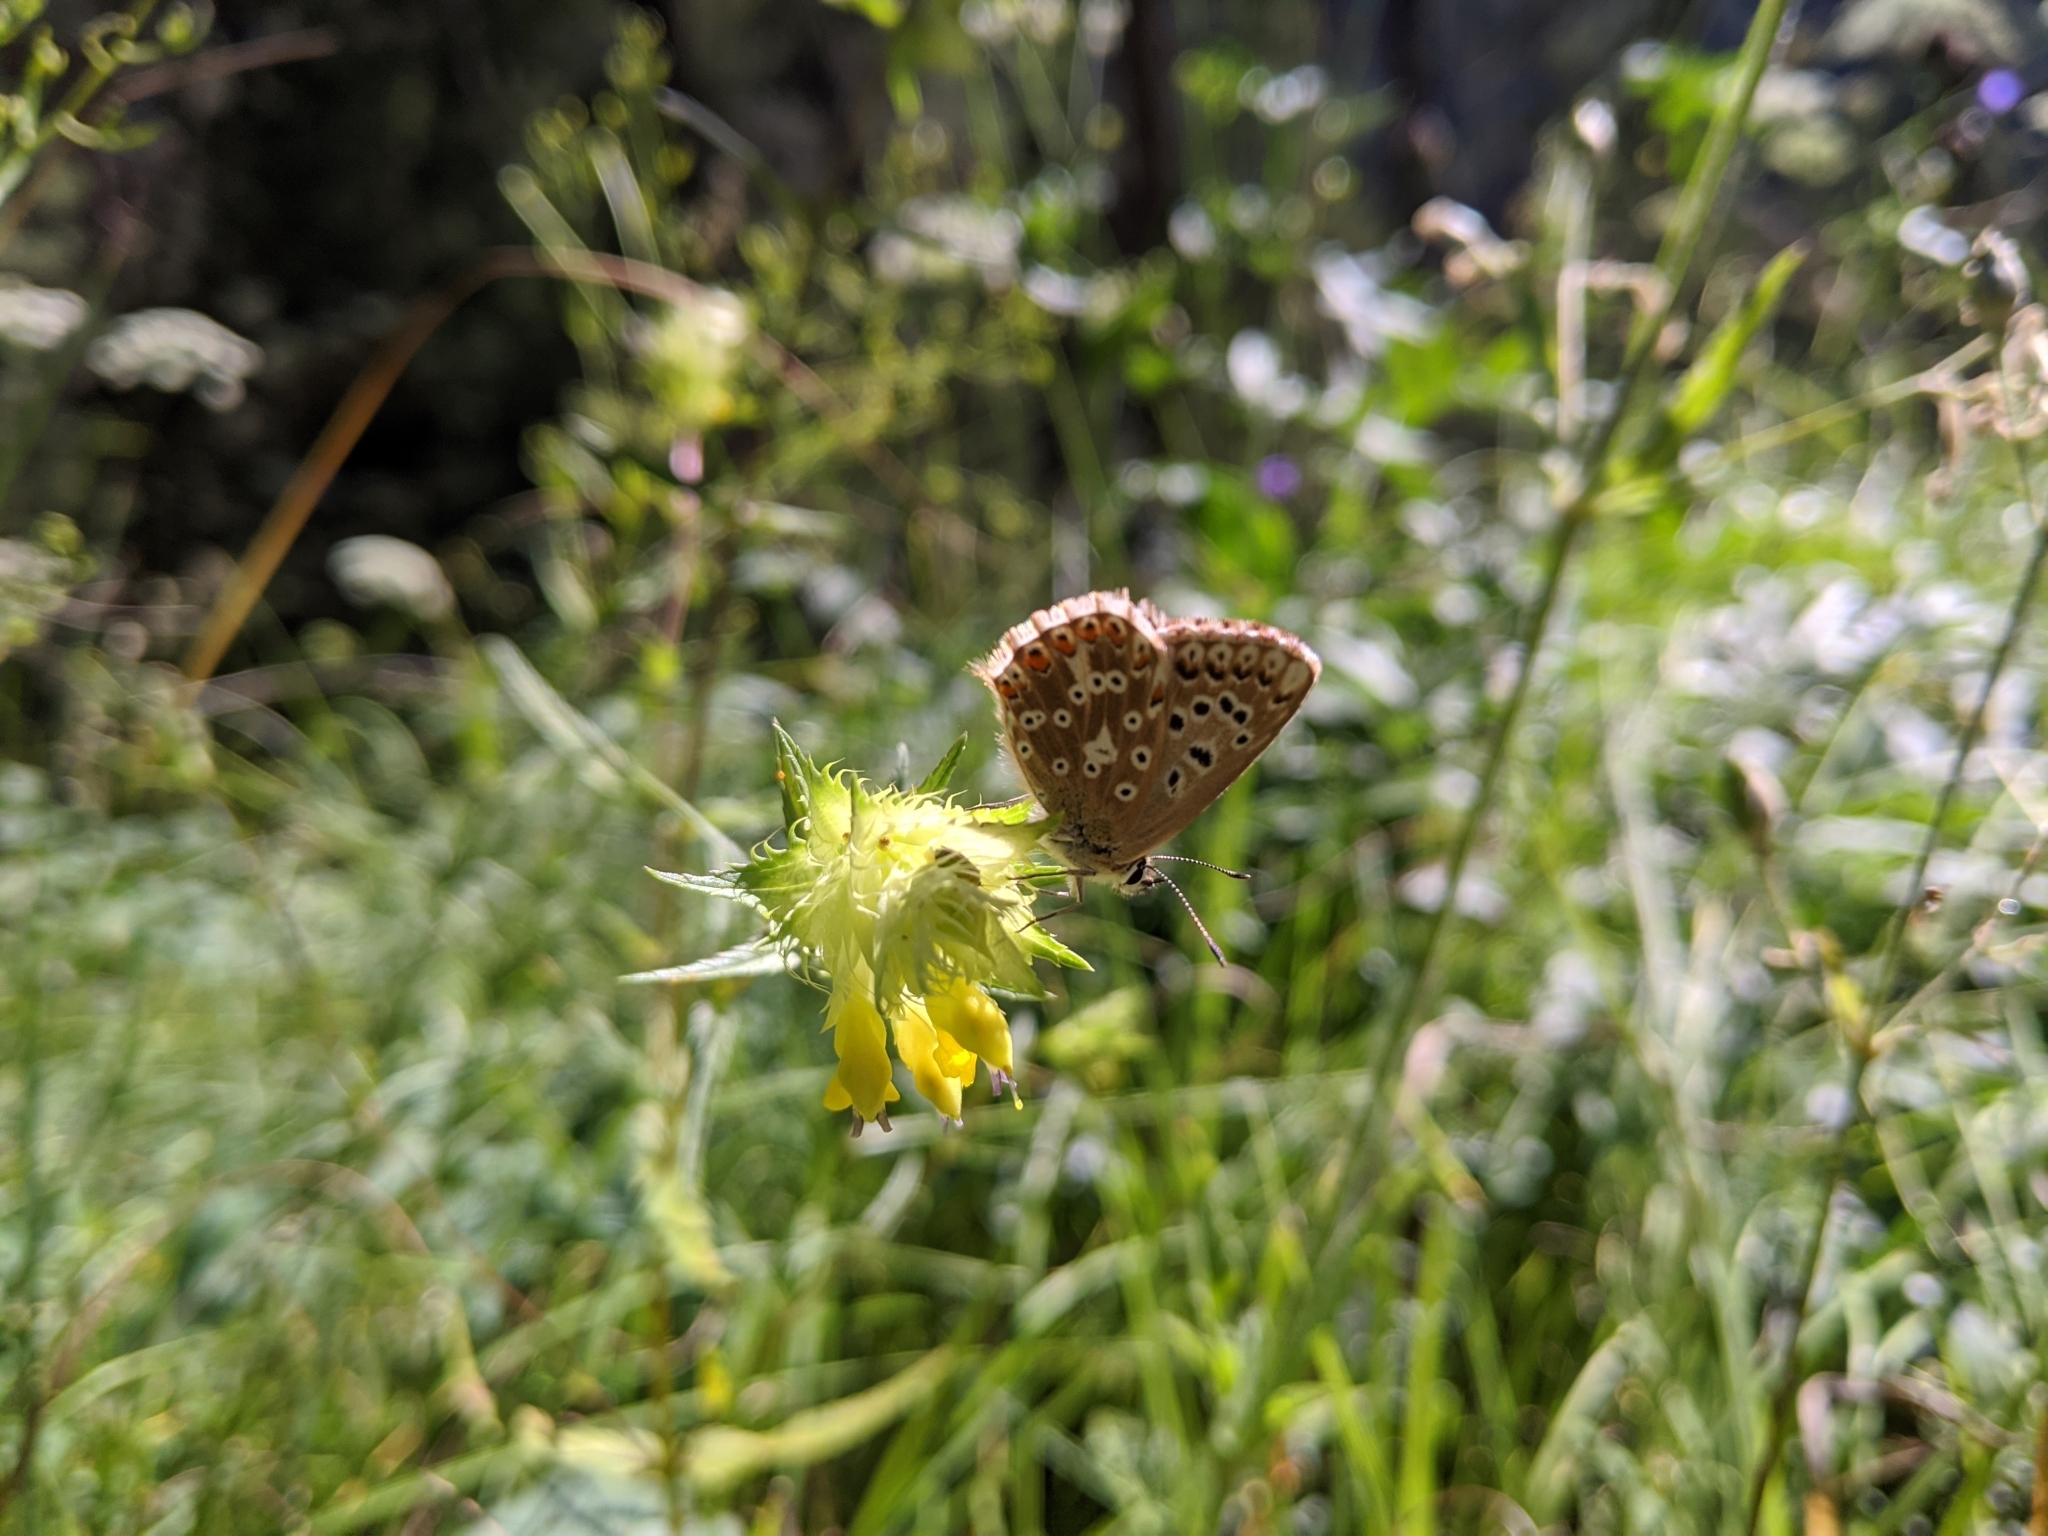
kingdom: Animalia
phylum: Arthropoda
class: Insecta
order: Lepidoptera
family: Lycaenidae
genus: Lysandra
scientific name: Lysandra coridon
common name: Chalkhill blue
